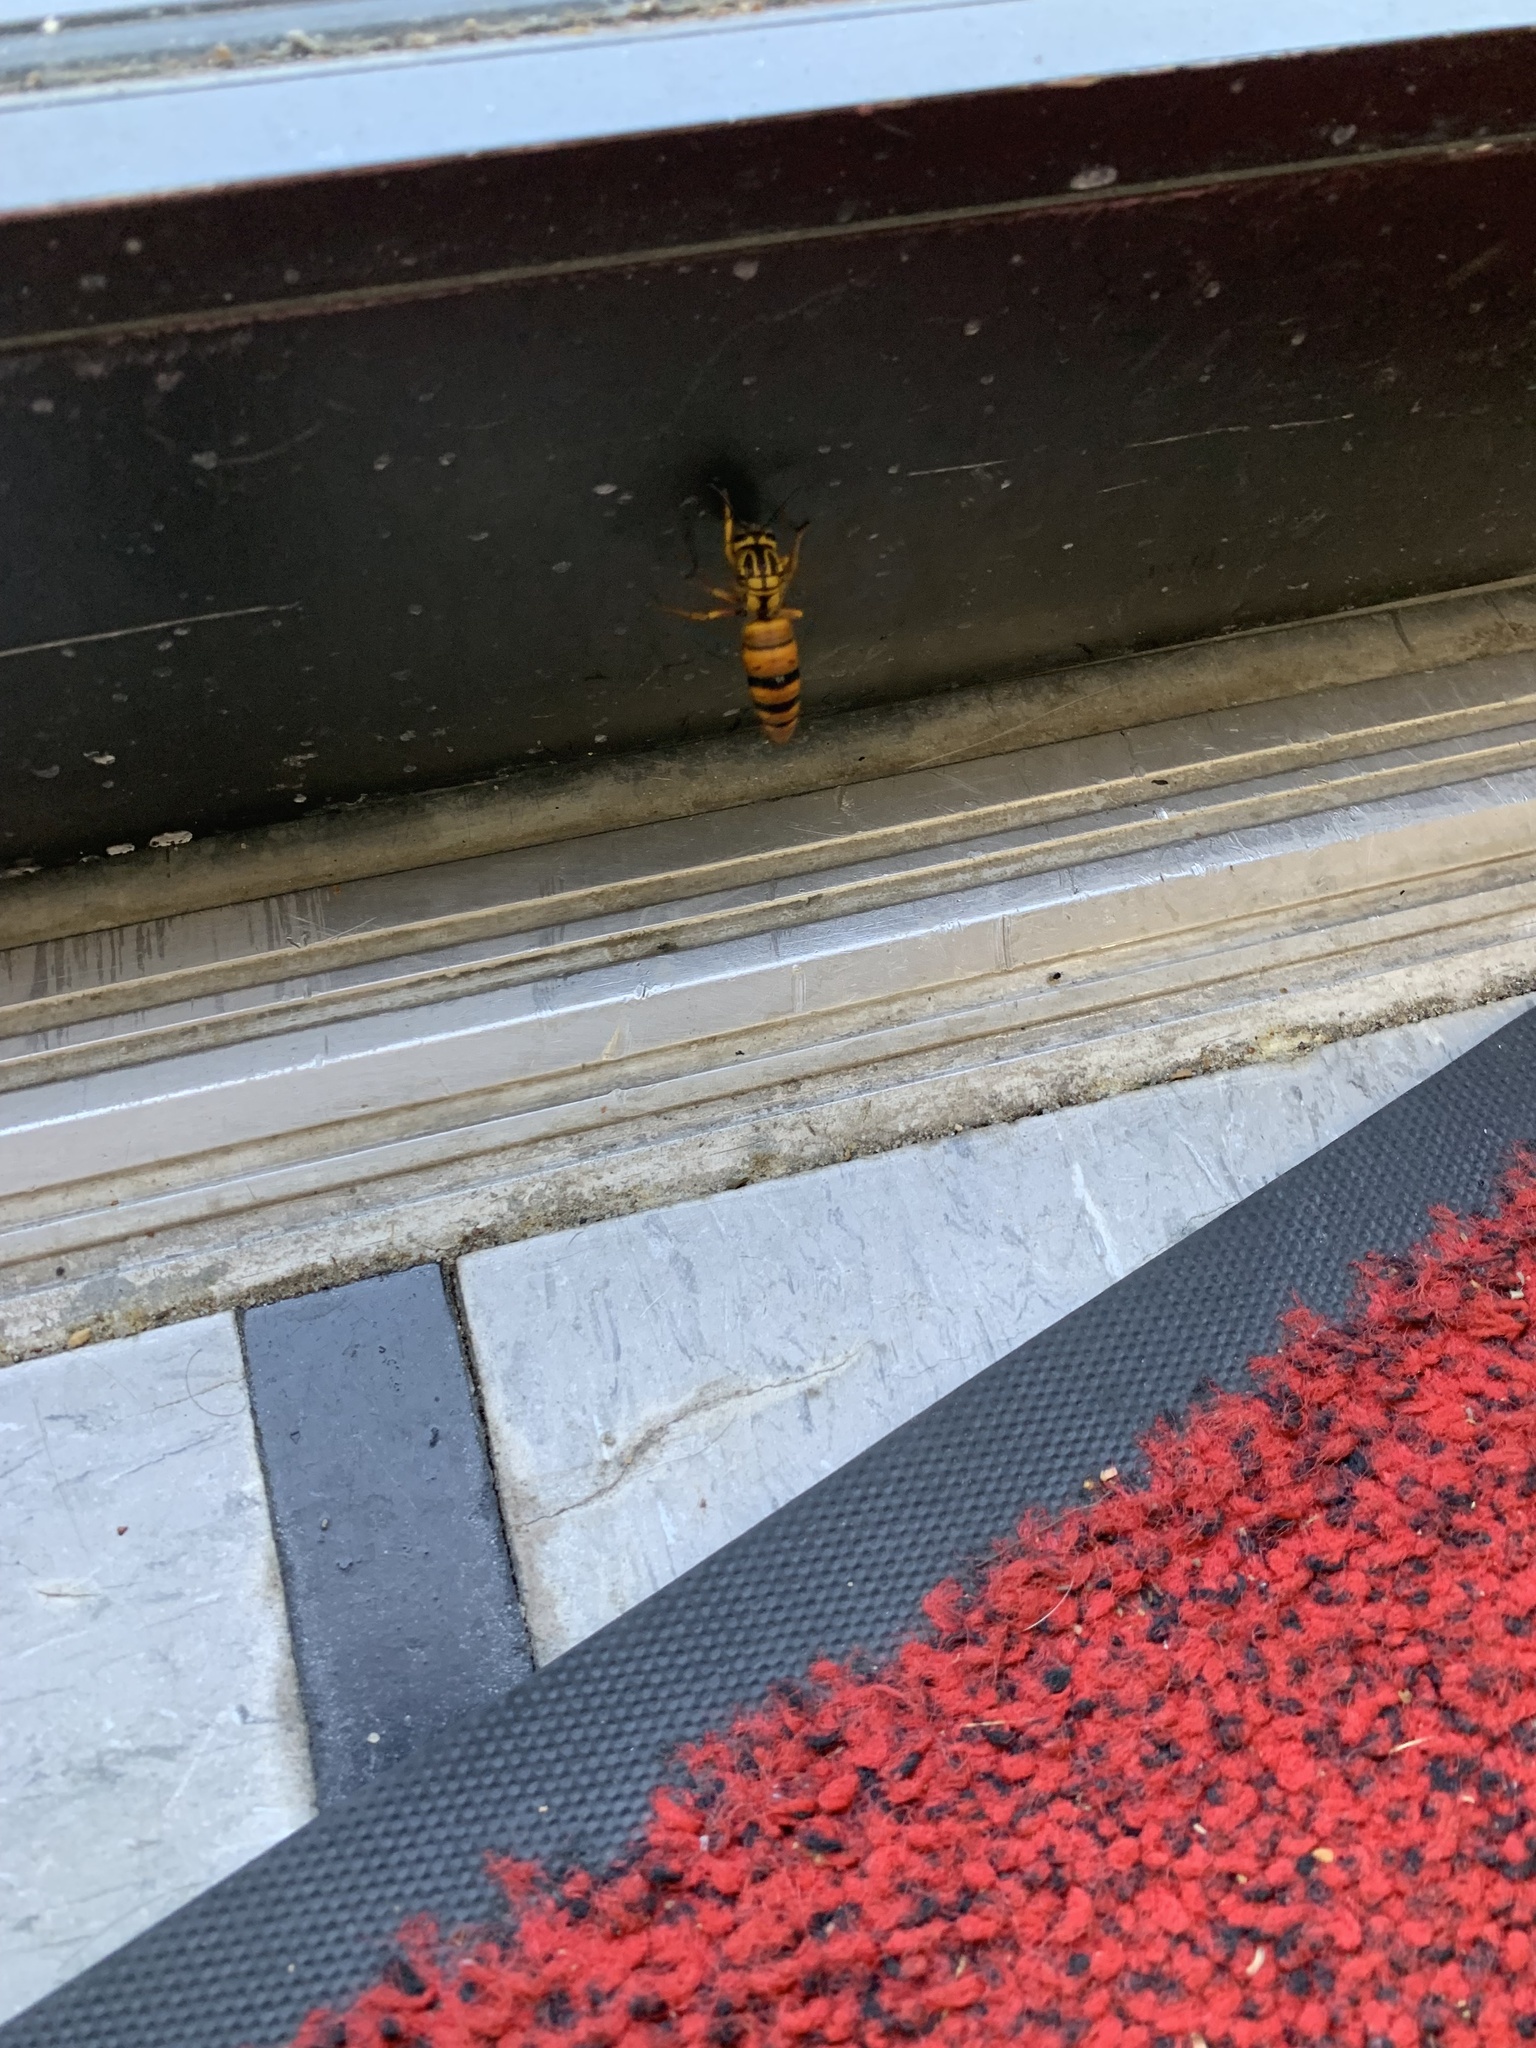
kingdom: Animalia
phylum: Arthropoda
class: Insecta
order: Hymenoptera
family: Vespidae
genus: Vespula
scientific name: Vespula squamosa
